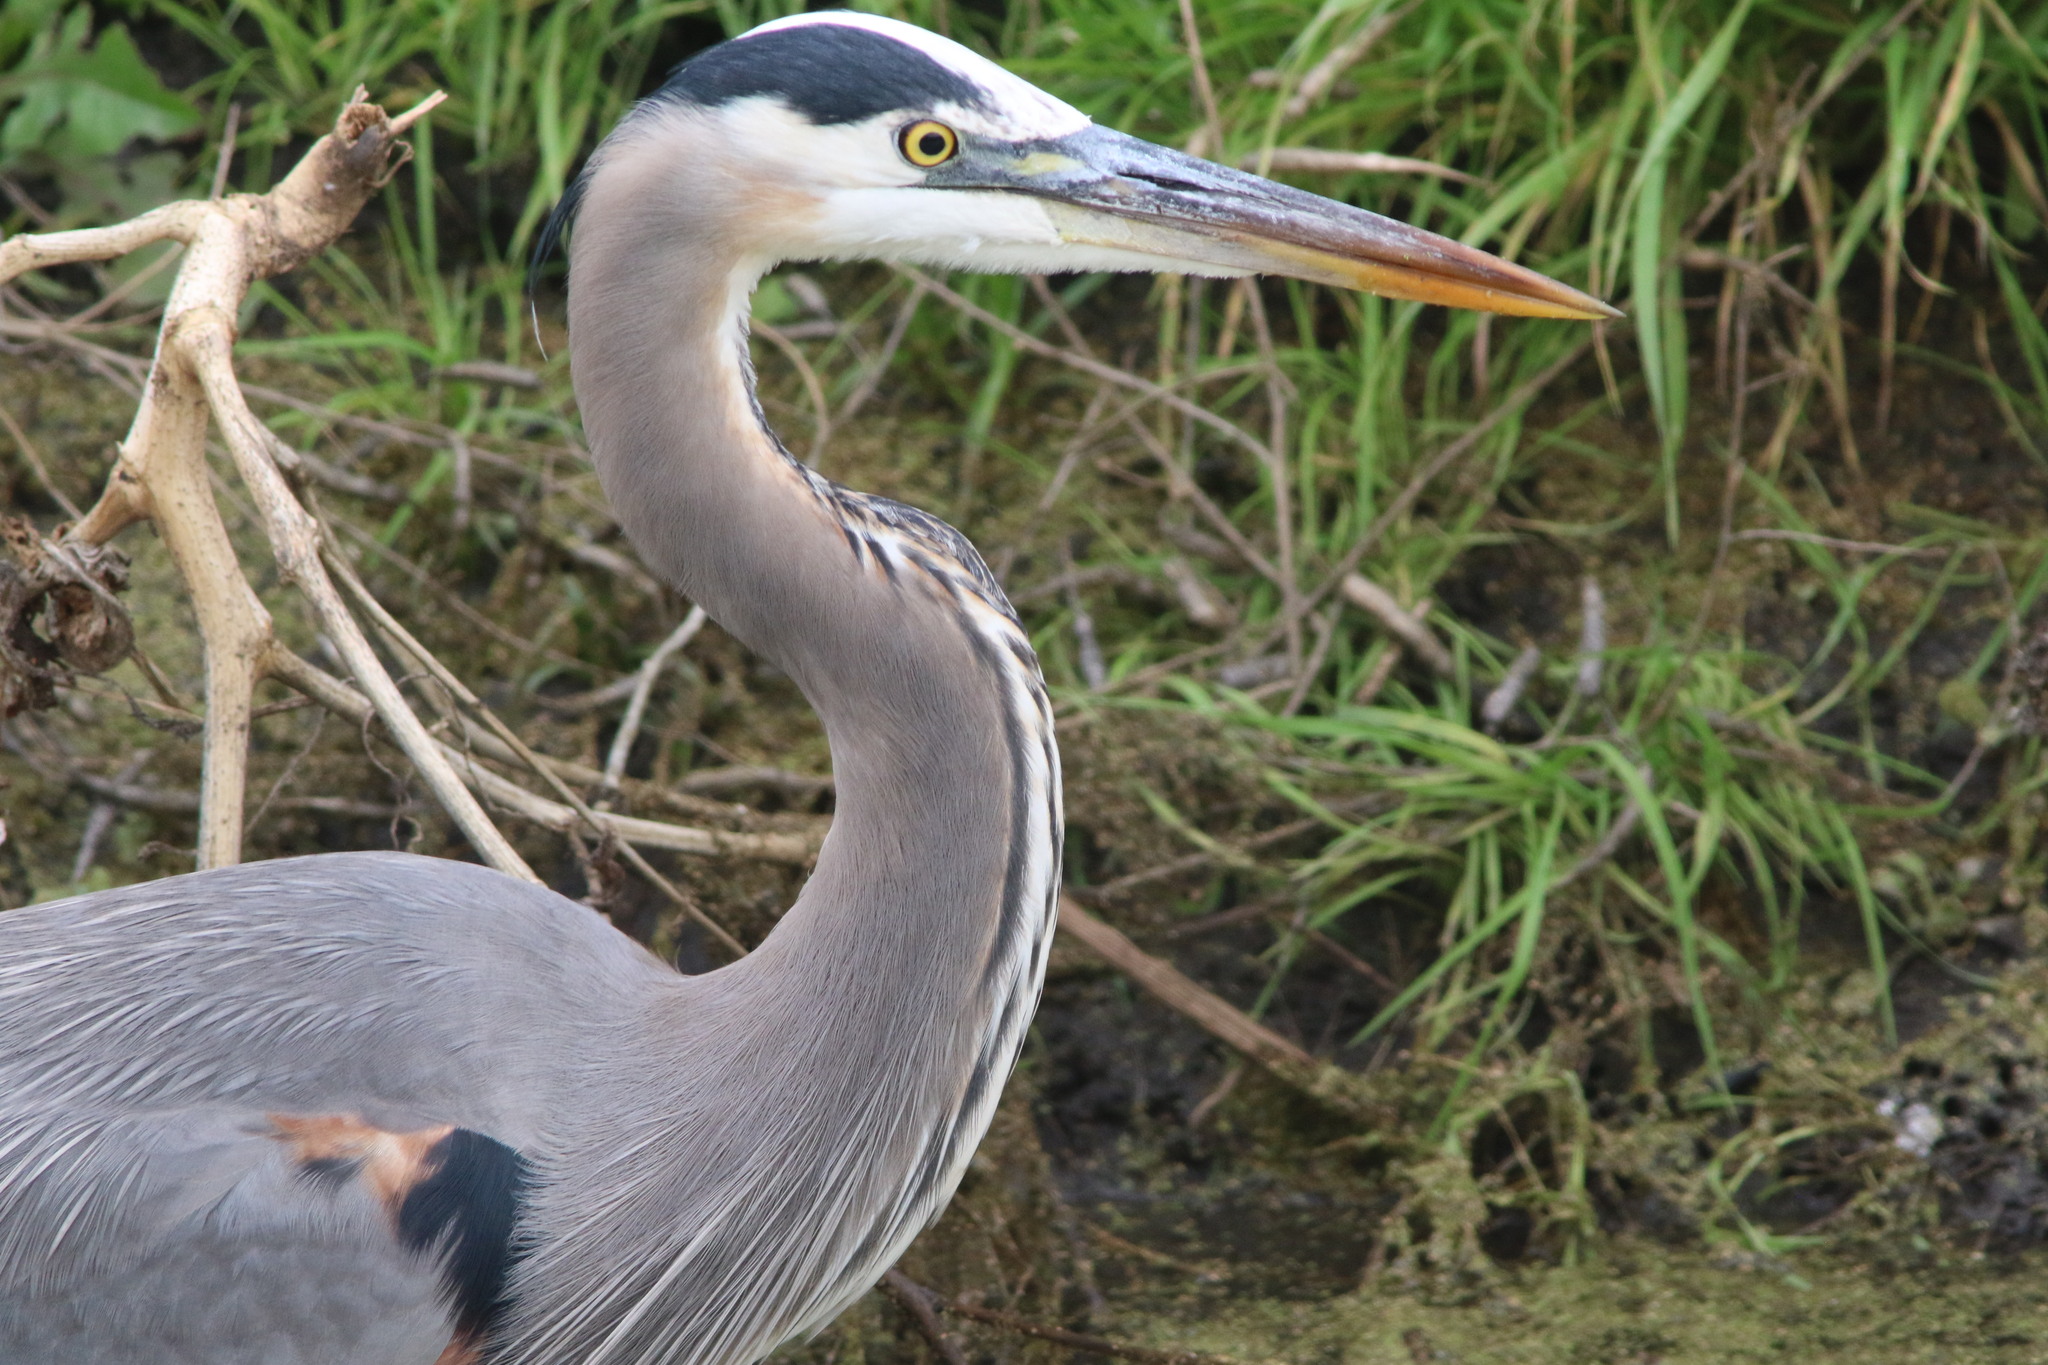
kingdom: Animalia
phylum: Chordata
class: Aves
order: Pelecaniformes
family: Ardeidae
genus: Ardea
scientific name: Ardea herodias
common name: Great blue heron
